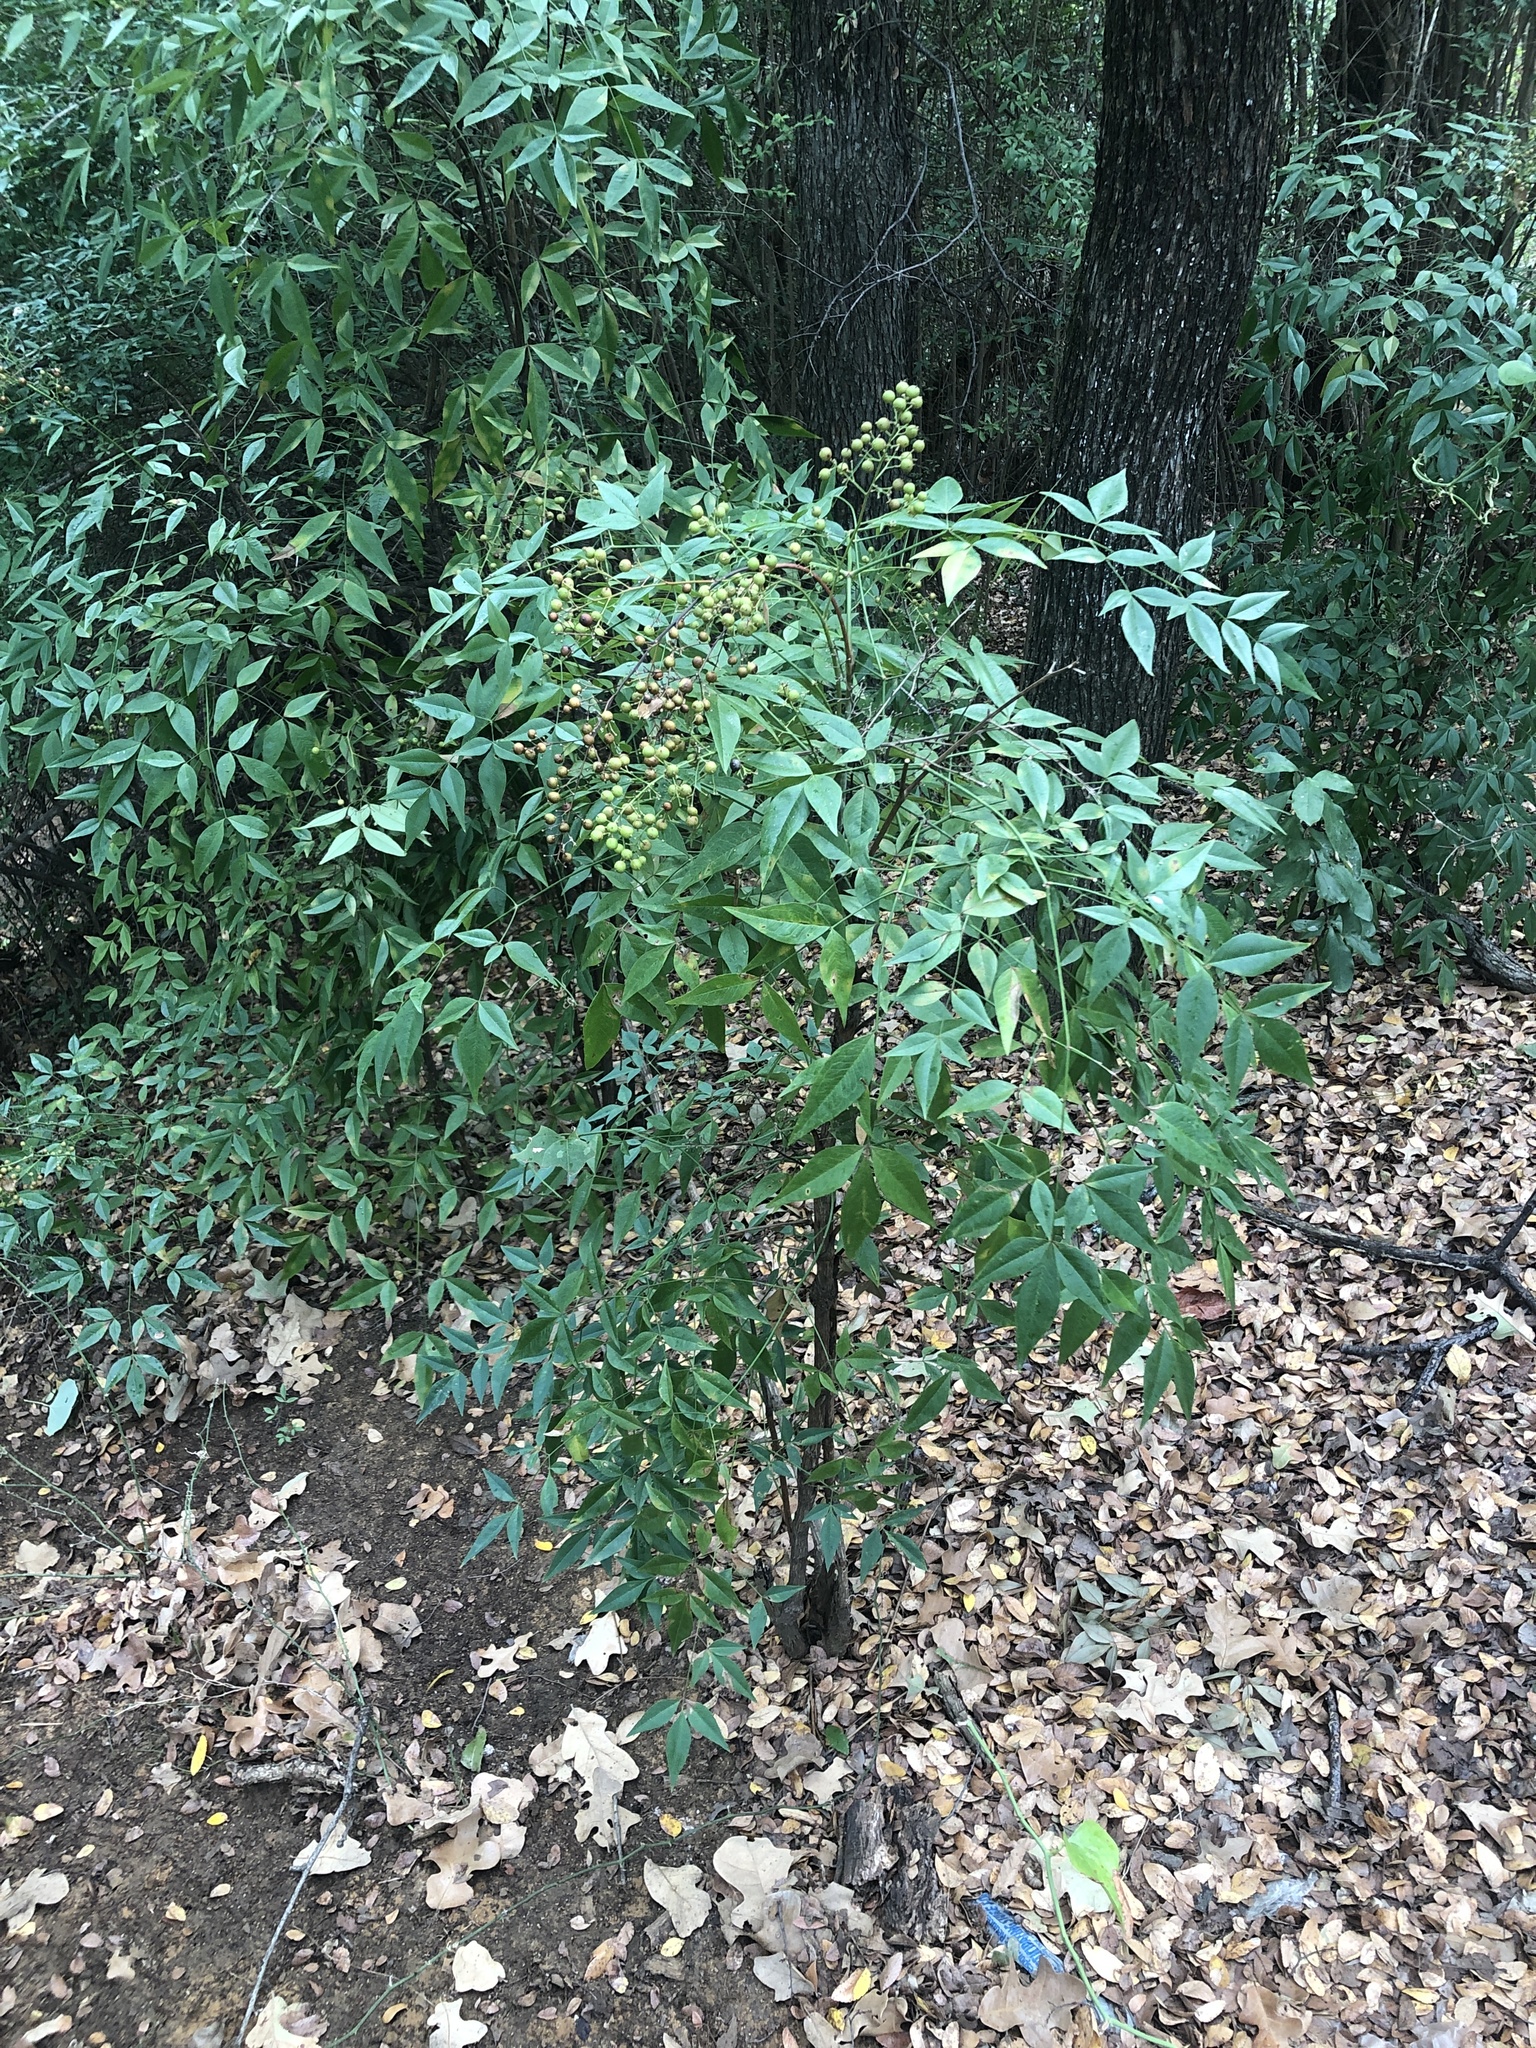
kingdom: Plantae
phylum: Tracheophyta
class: Magnoliopsida
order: Ranunculales
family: Berberidaceae
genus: Nandina
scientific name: Nandina domestica
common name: Sacred bamboo
